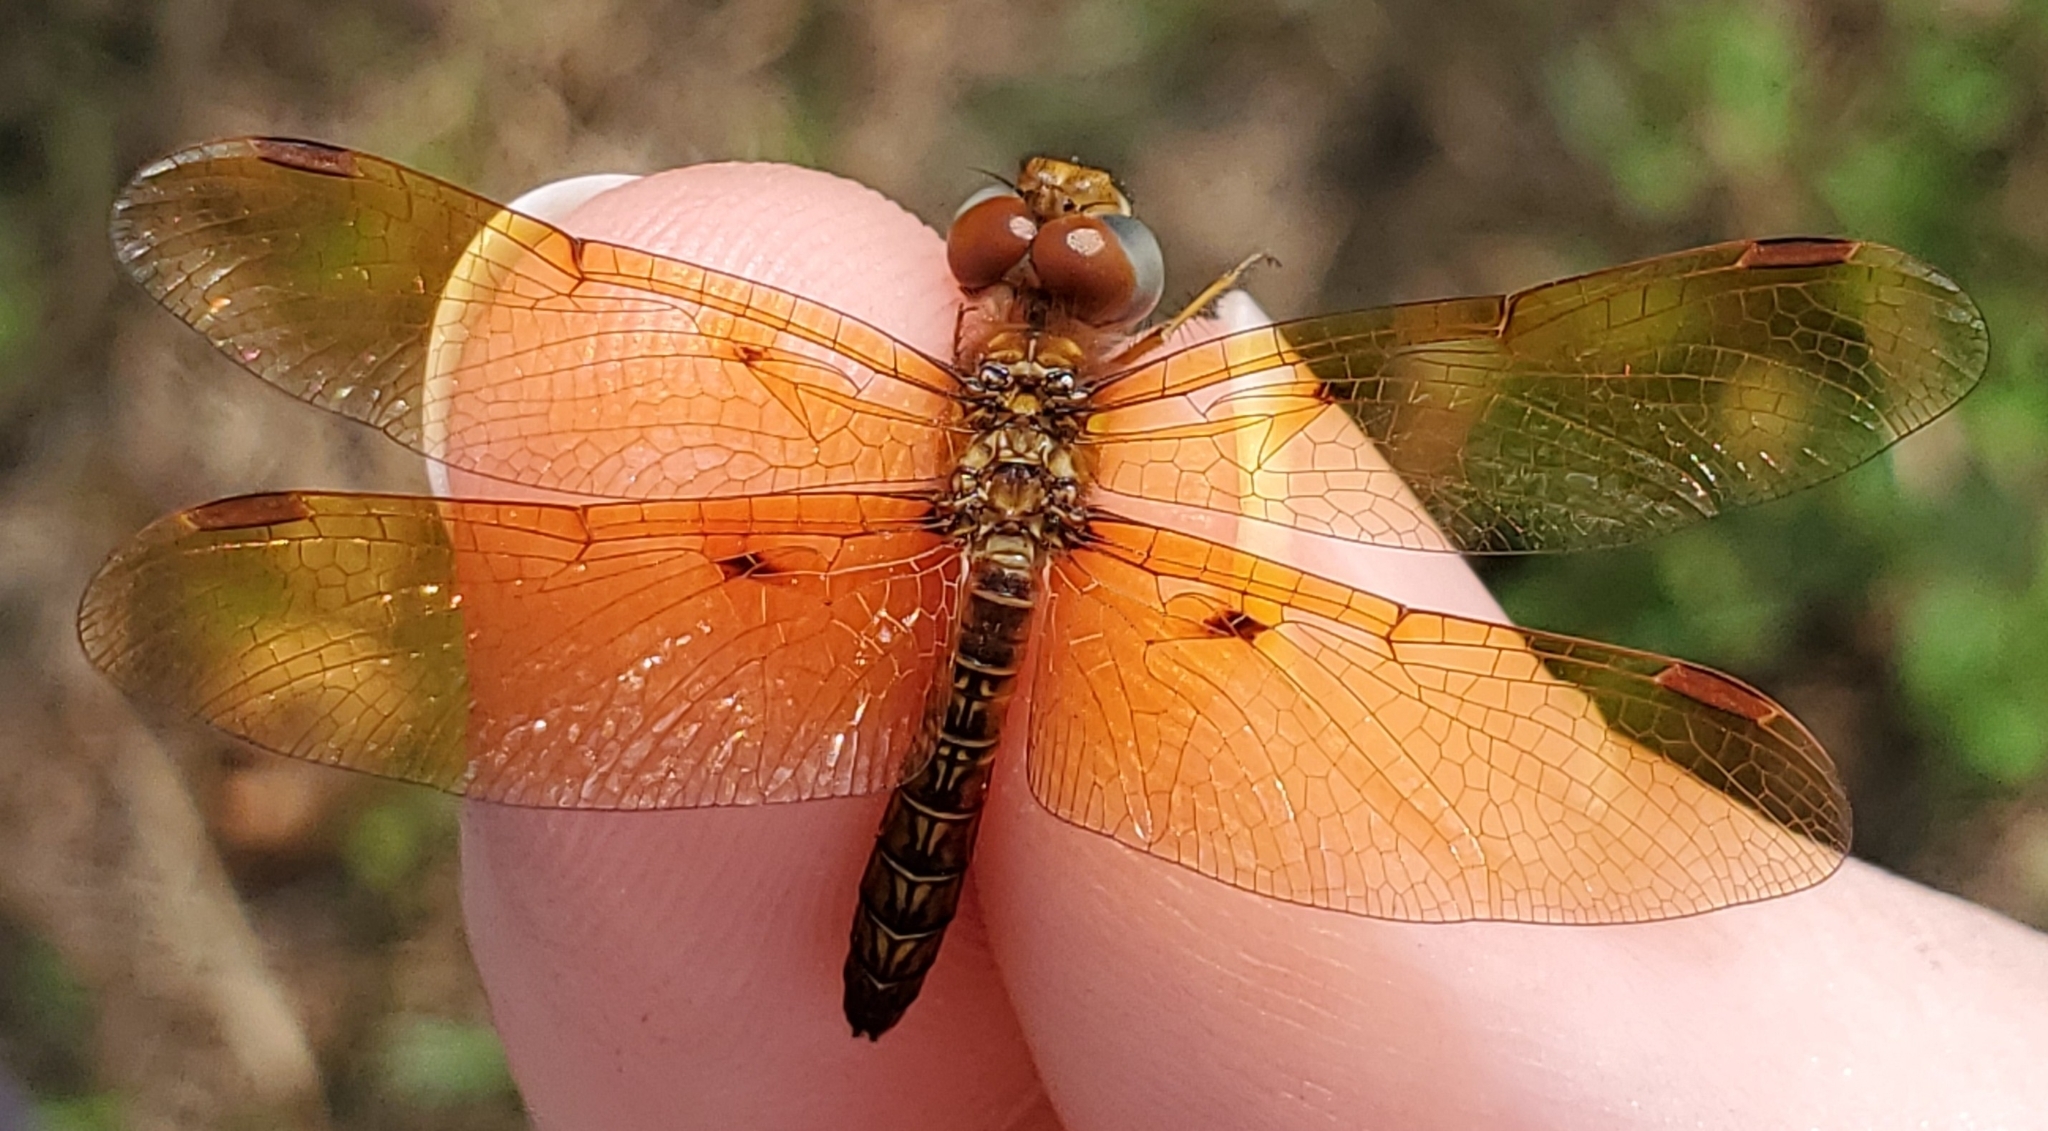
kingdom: Animalia
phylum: Arthropoda
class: Insecta
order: Odonata
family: Libellulidae
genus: Perithemis
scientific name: Perithemis tenera
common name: Eastern amberwing
